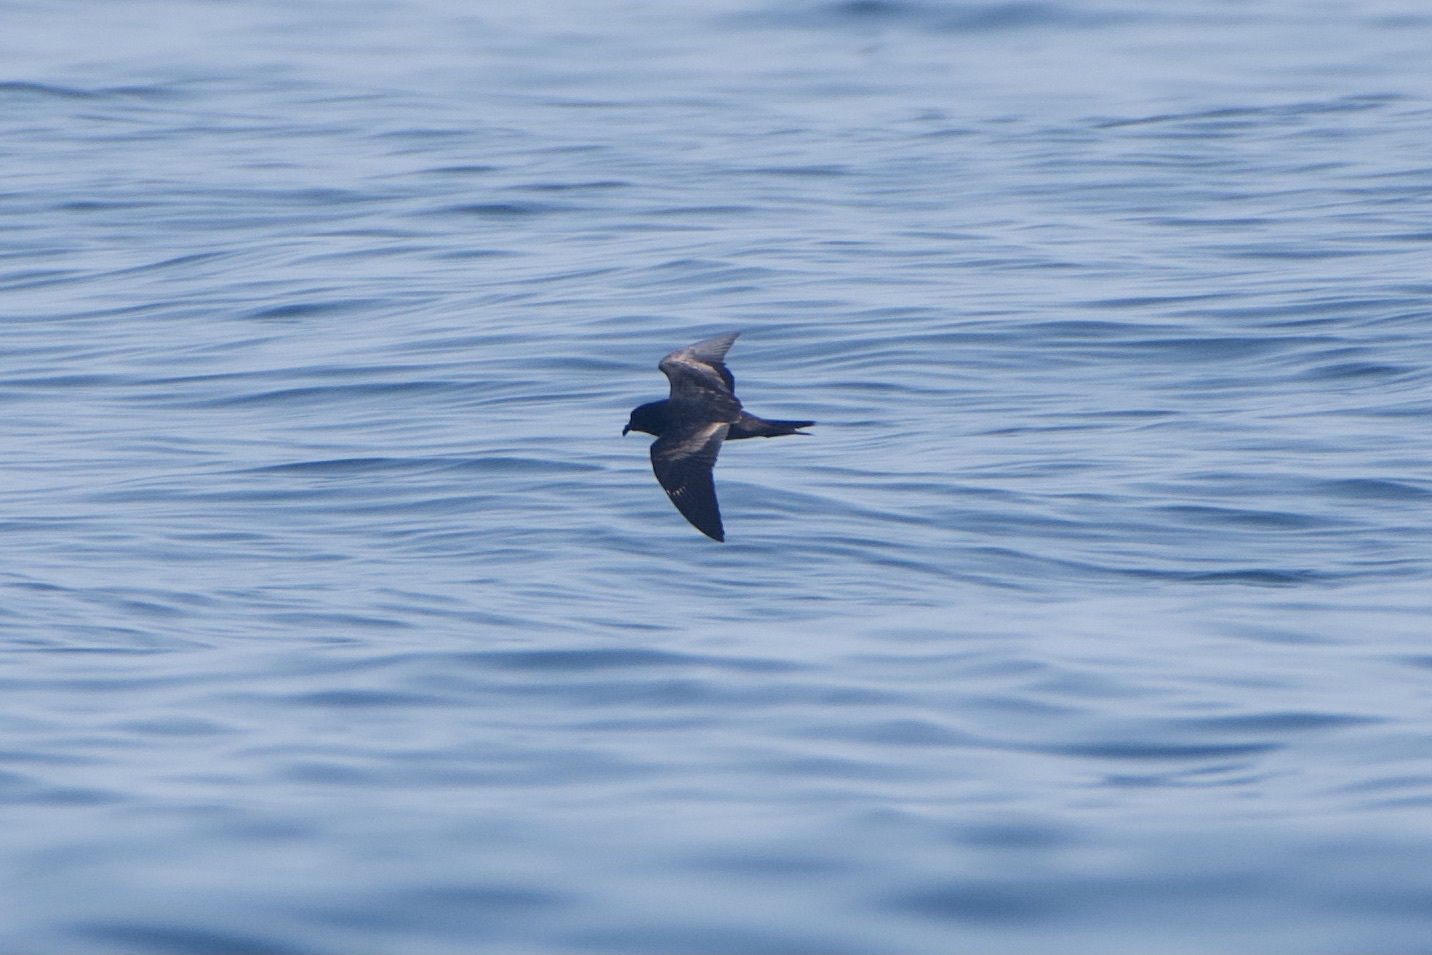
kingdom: Animalia
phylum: Chordata
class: Aves
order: Procellariiformes
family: Hydrobatidae
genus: Hydrobates
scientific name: Hydrobates melania
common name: Black storm petrel
